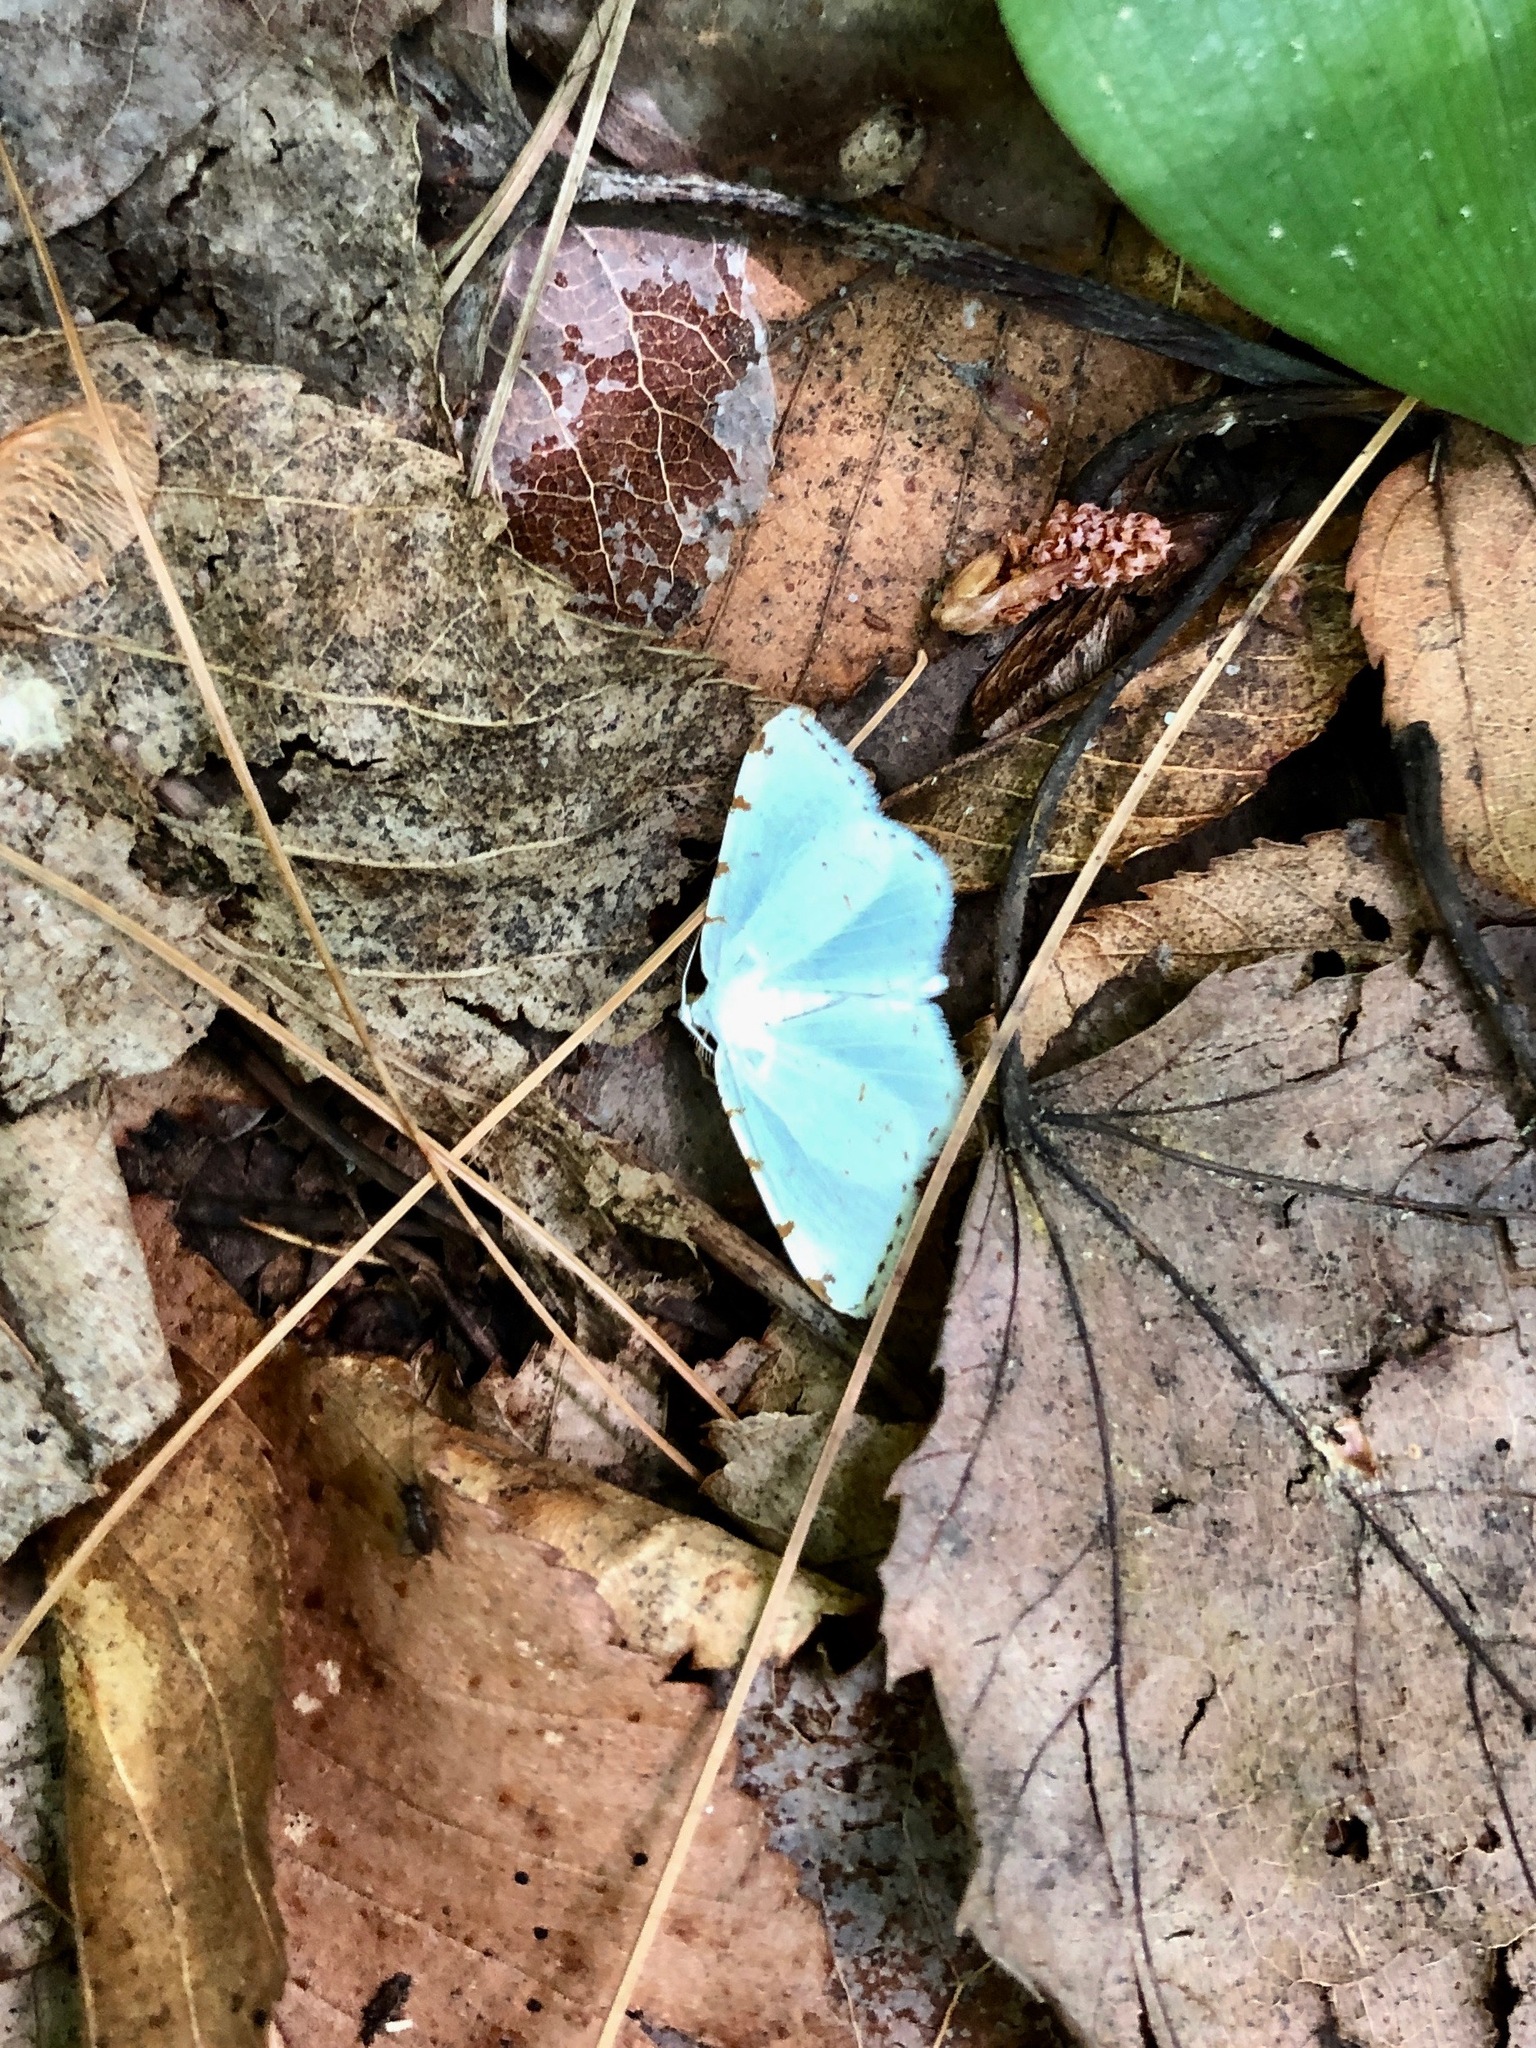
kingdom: Animalia
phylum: Arthropoda
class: Insecta
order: Lepidoptera
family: Geometridae
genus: Macaria
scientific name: Macaria pustularia
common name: Lesser maple spanworm moth
